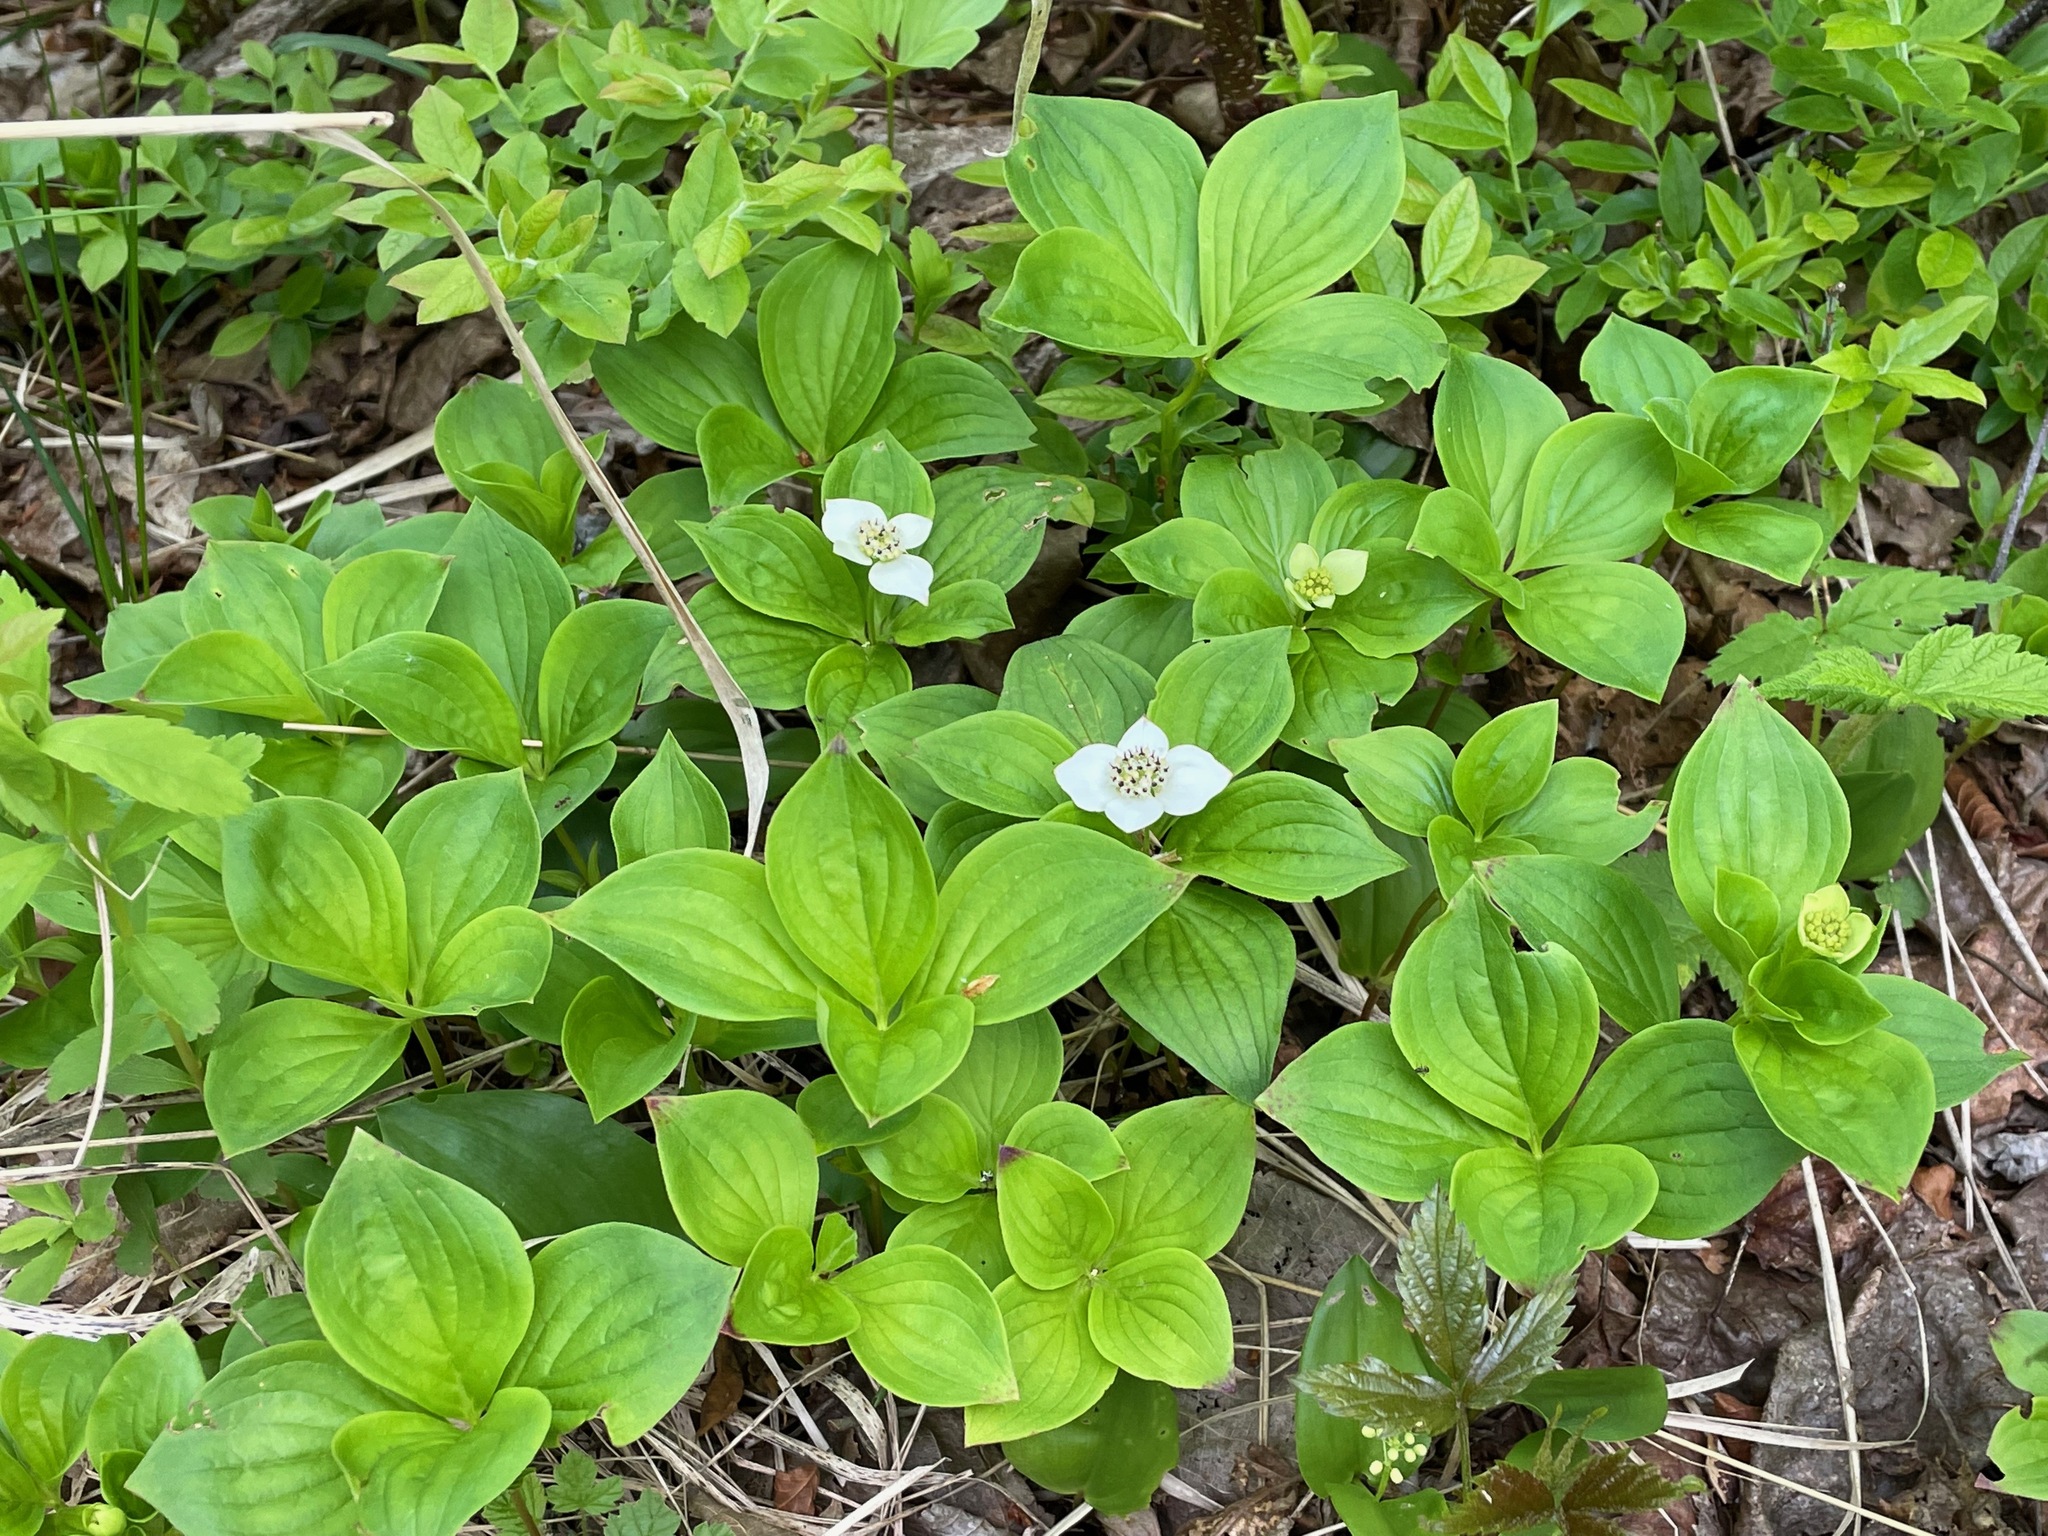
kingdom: Plantae
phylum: Tracheophyta
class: Magnoliopsida
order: Cornales
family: Cornaceae
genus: Cornus
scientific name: Cornus canadensis
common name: Creeping dogwood
